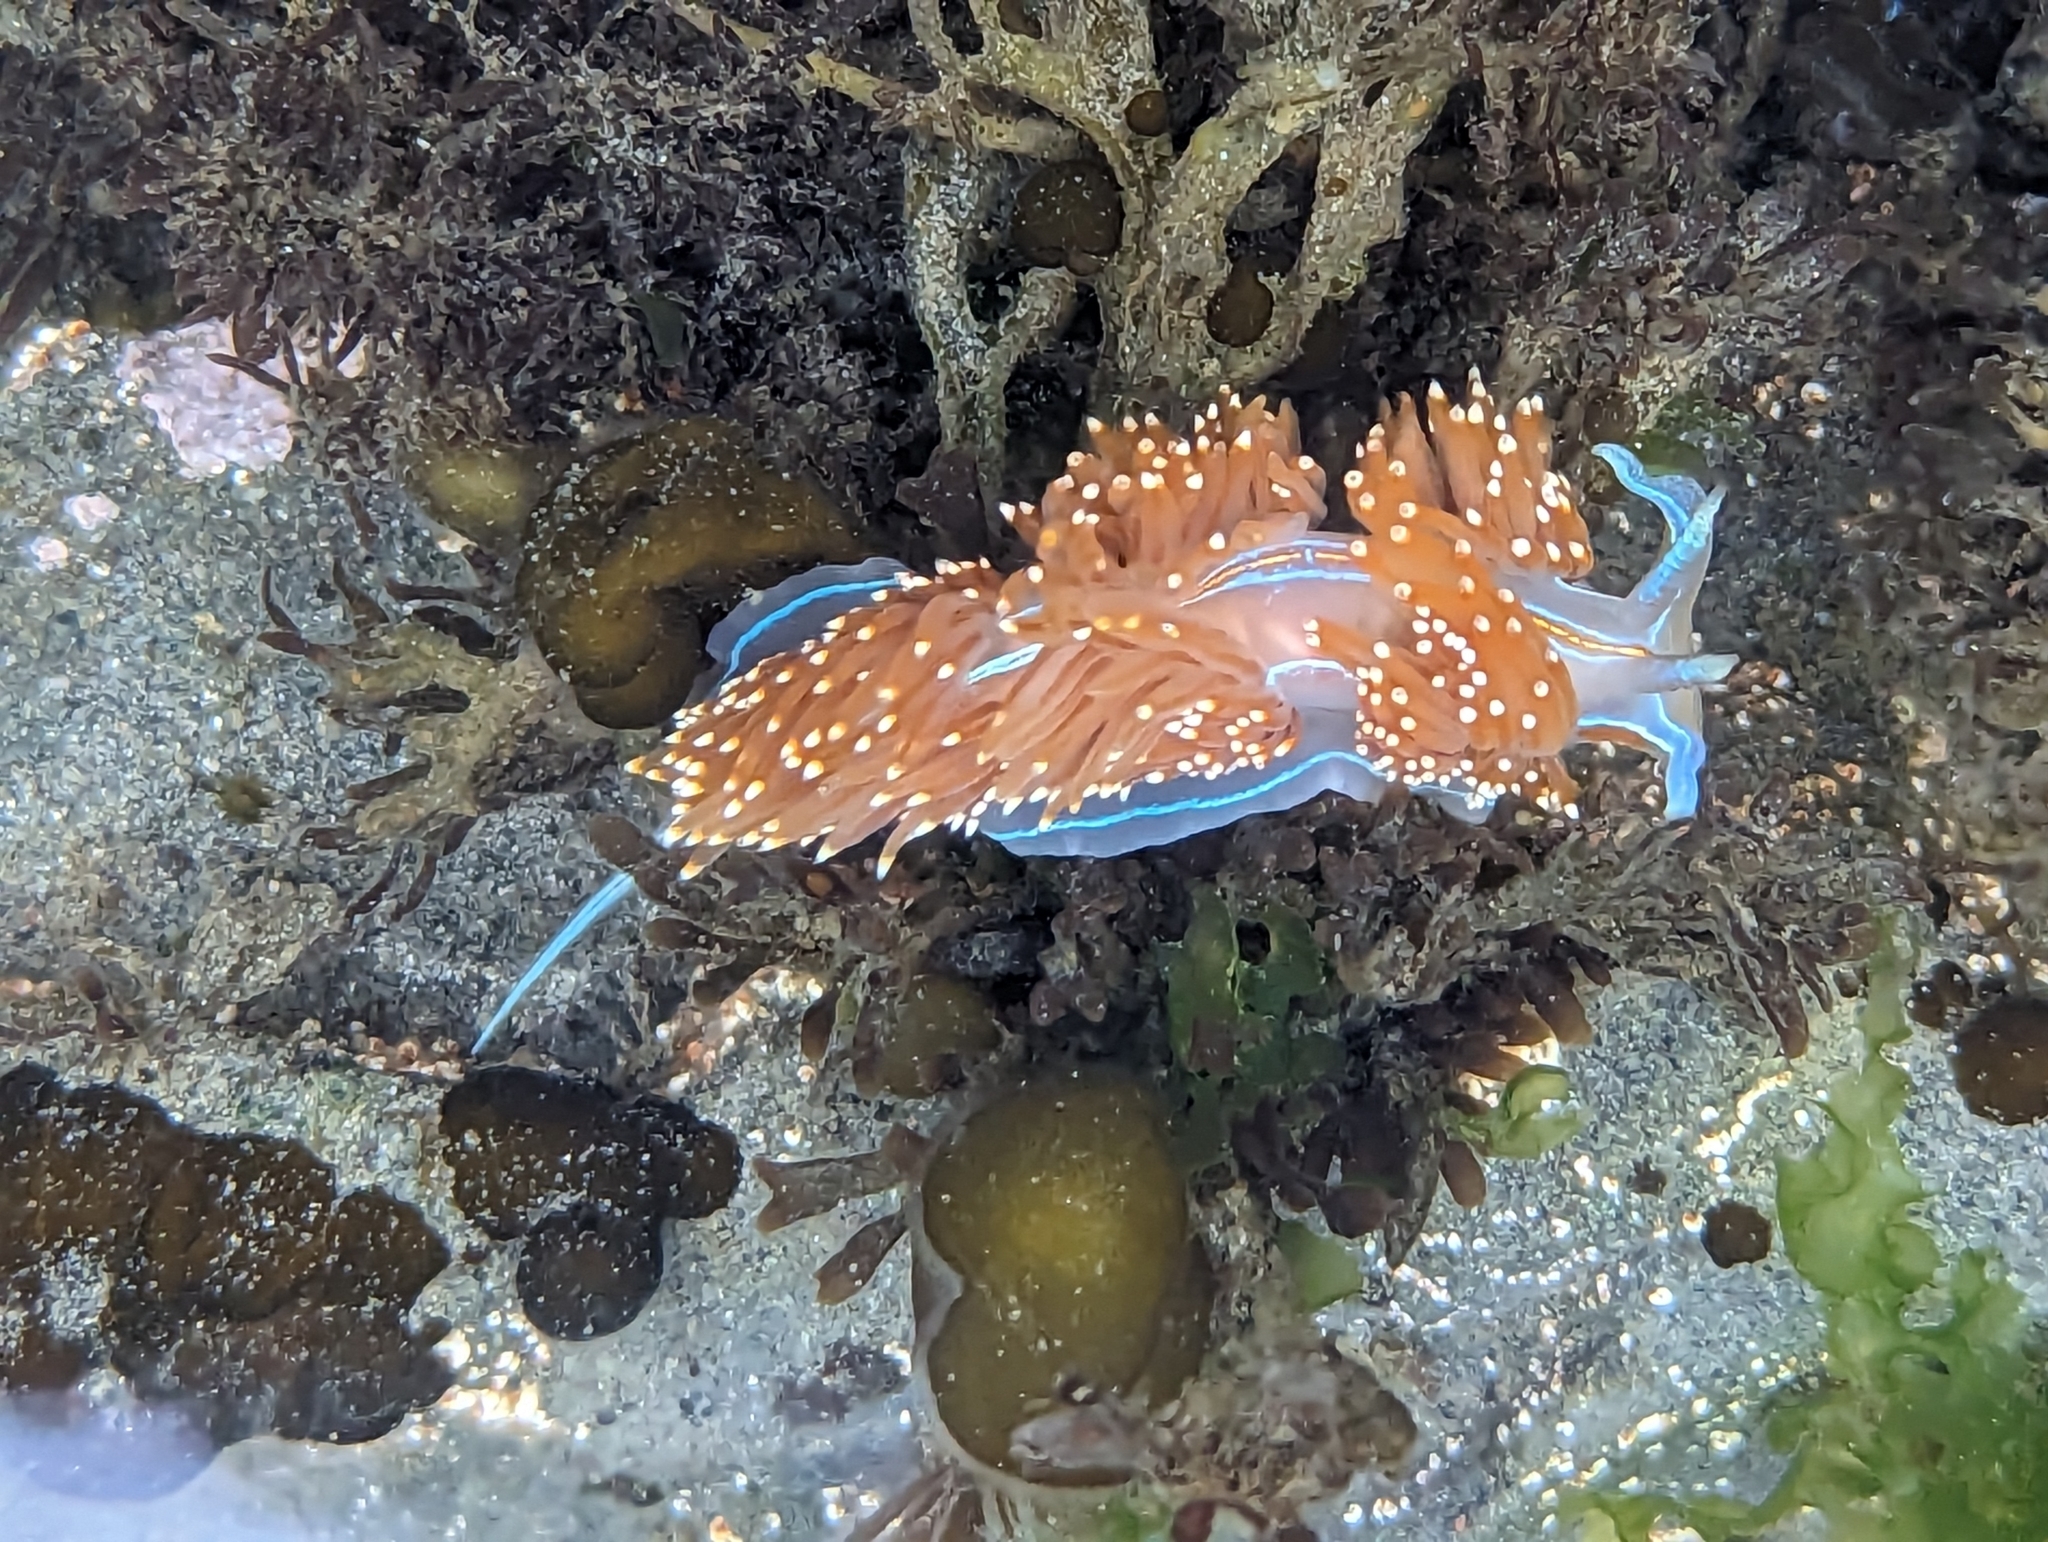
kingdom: Animalia
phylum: Mollusca
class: Gastropoda
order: Nudibranchia
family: Myrrhinidae
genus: Hermissenda
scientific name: Hermissenda opalescens
